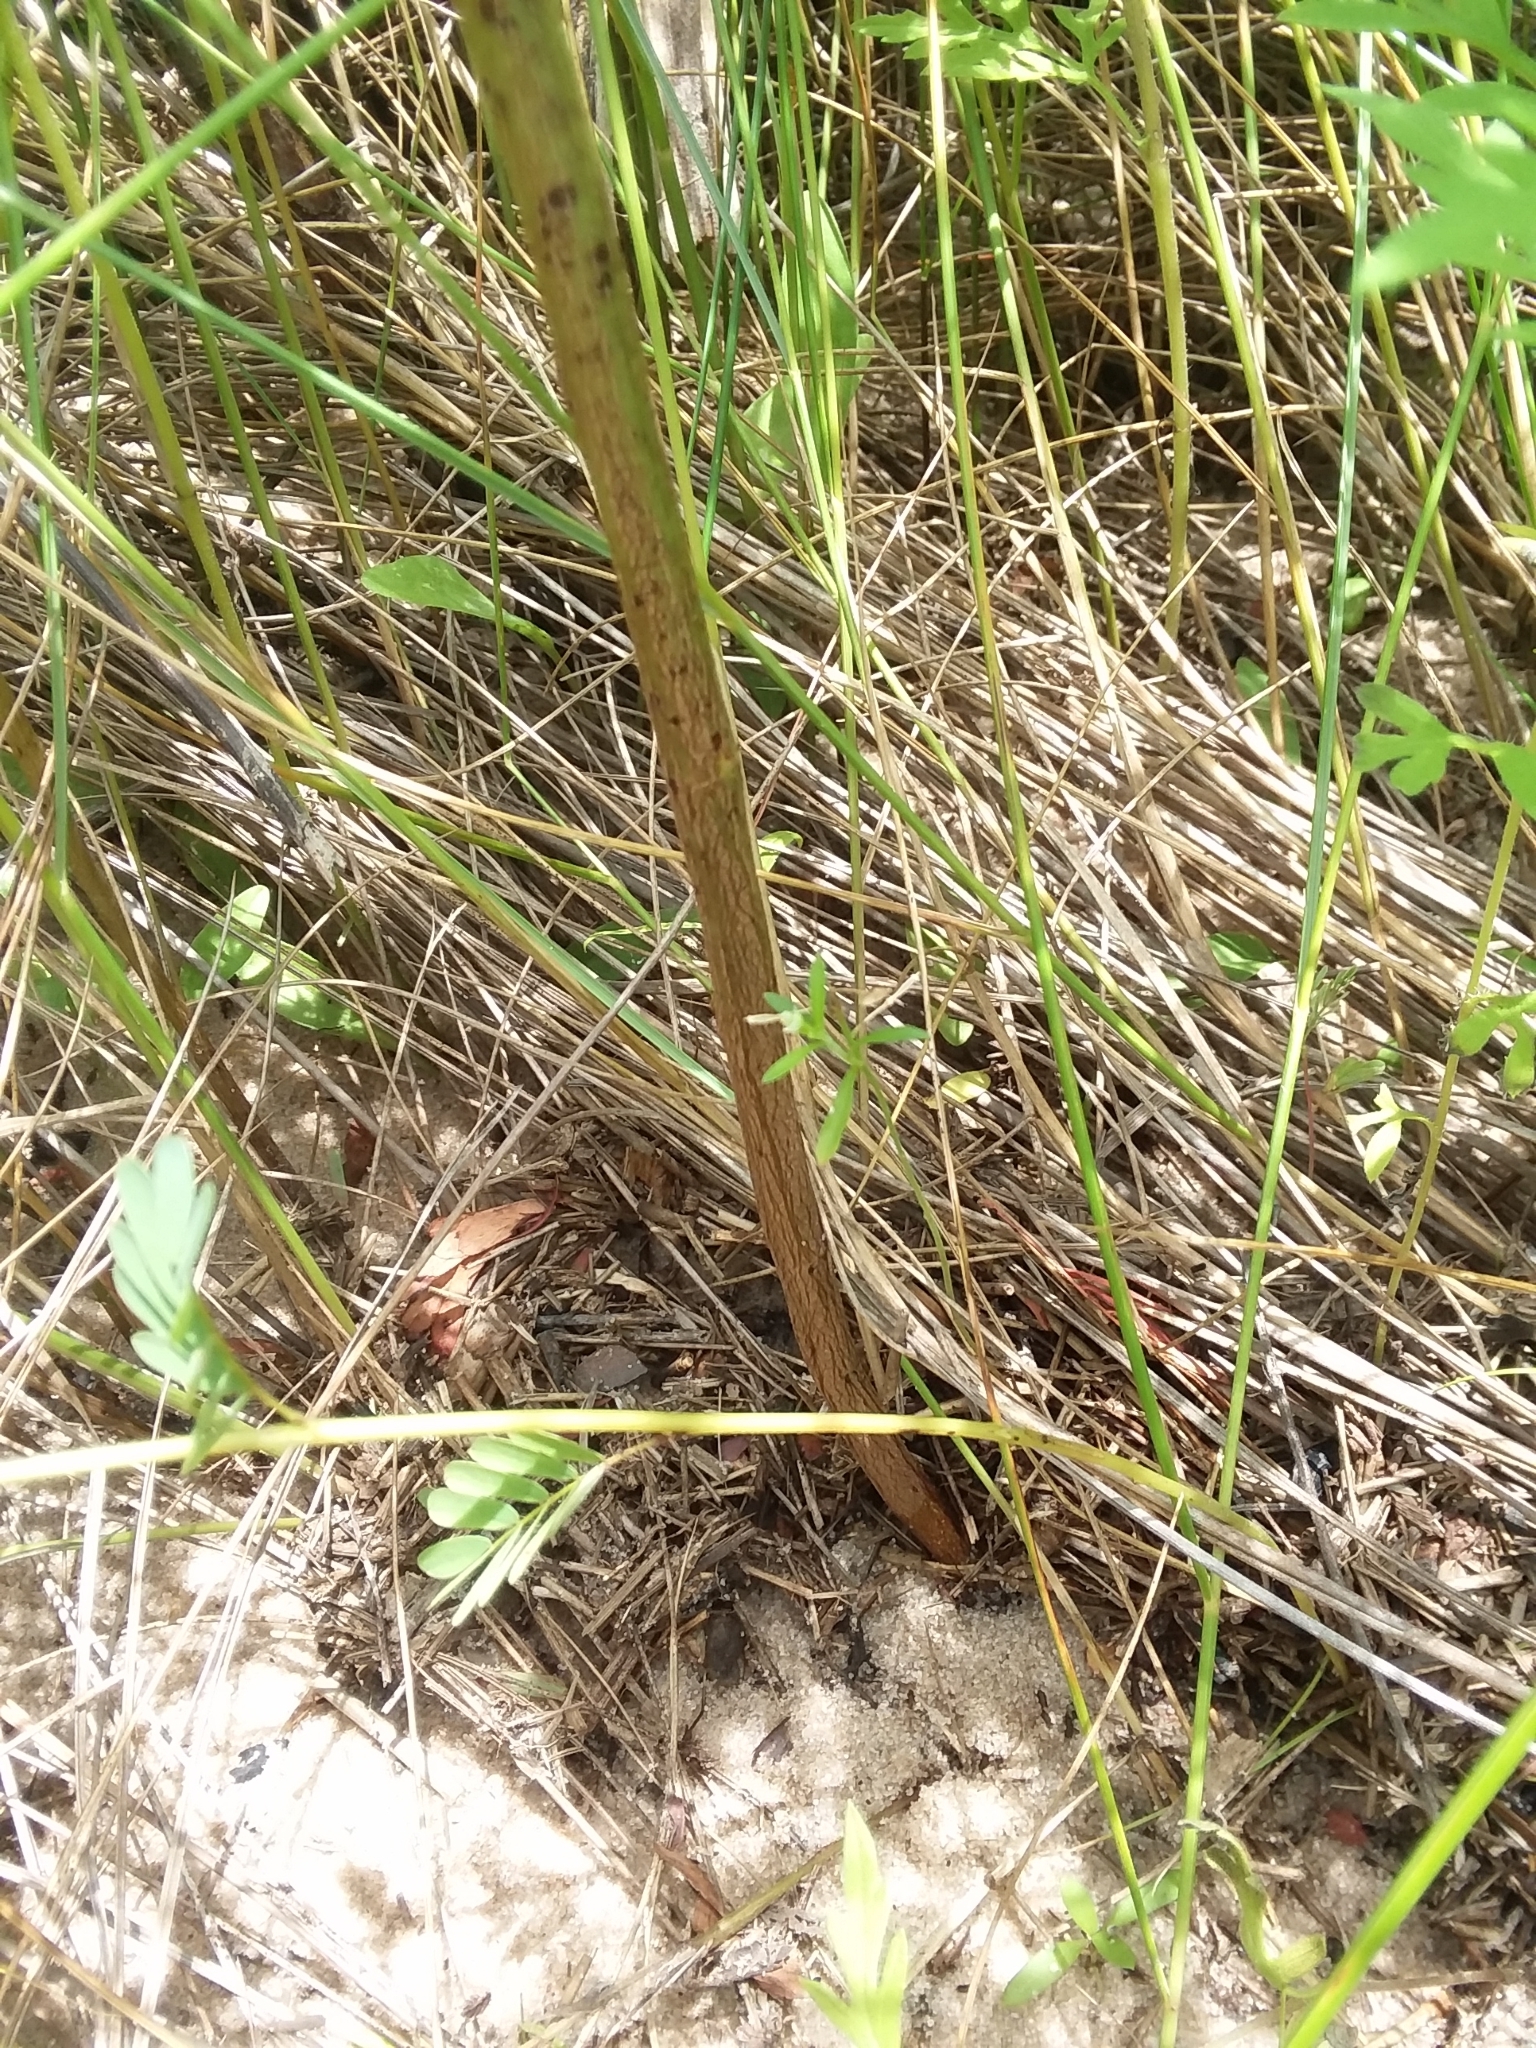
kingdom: Plantae
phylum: Tracheophyta
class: Magnoliopsida
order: Fabales
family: Fabaceae
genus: Chamaecrista
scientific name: Chamaecrista fasciculata
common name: Golden cassia
